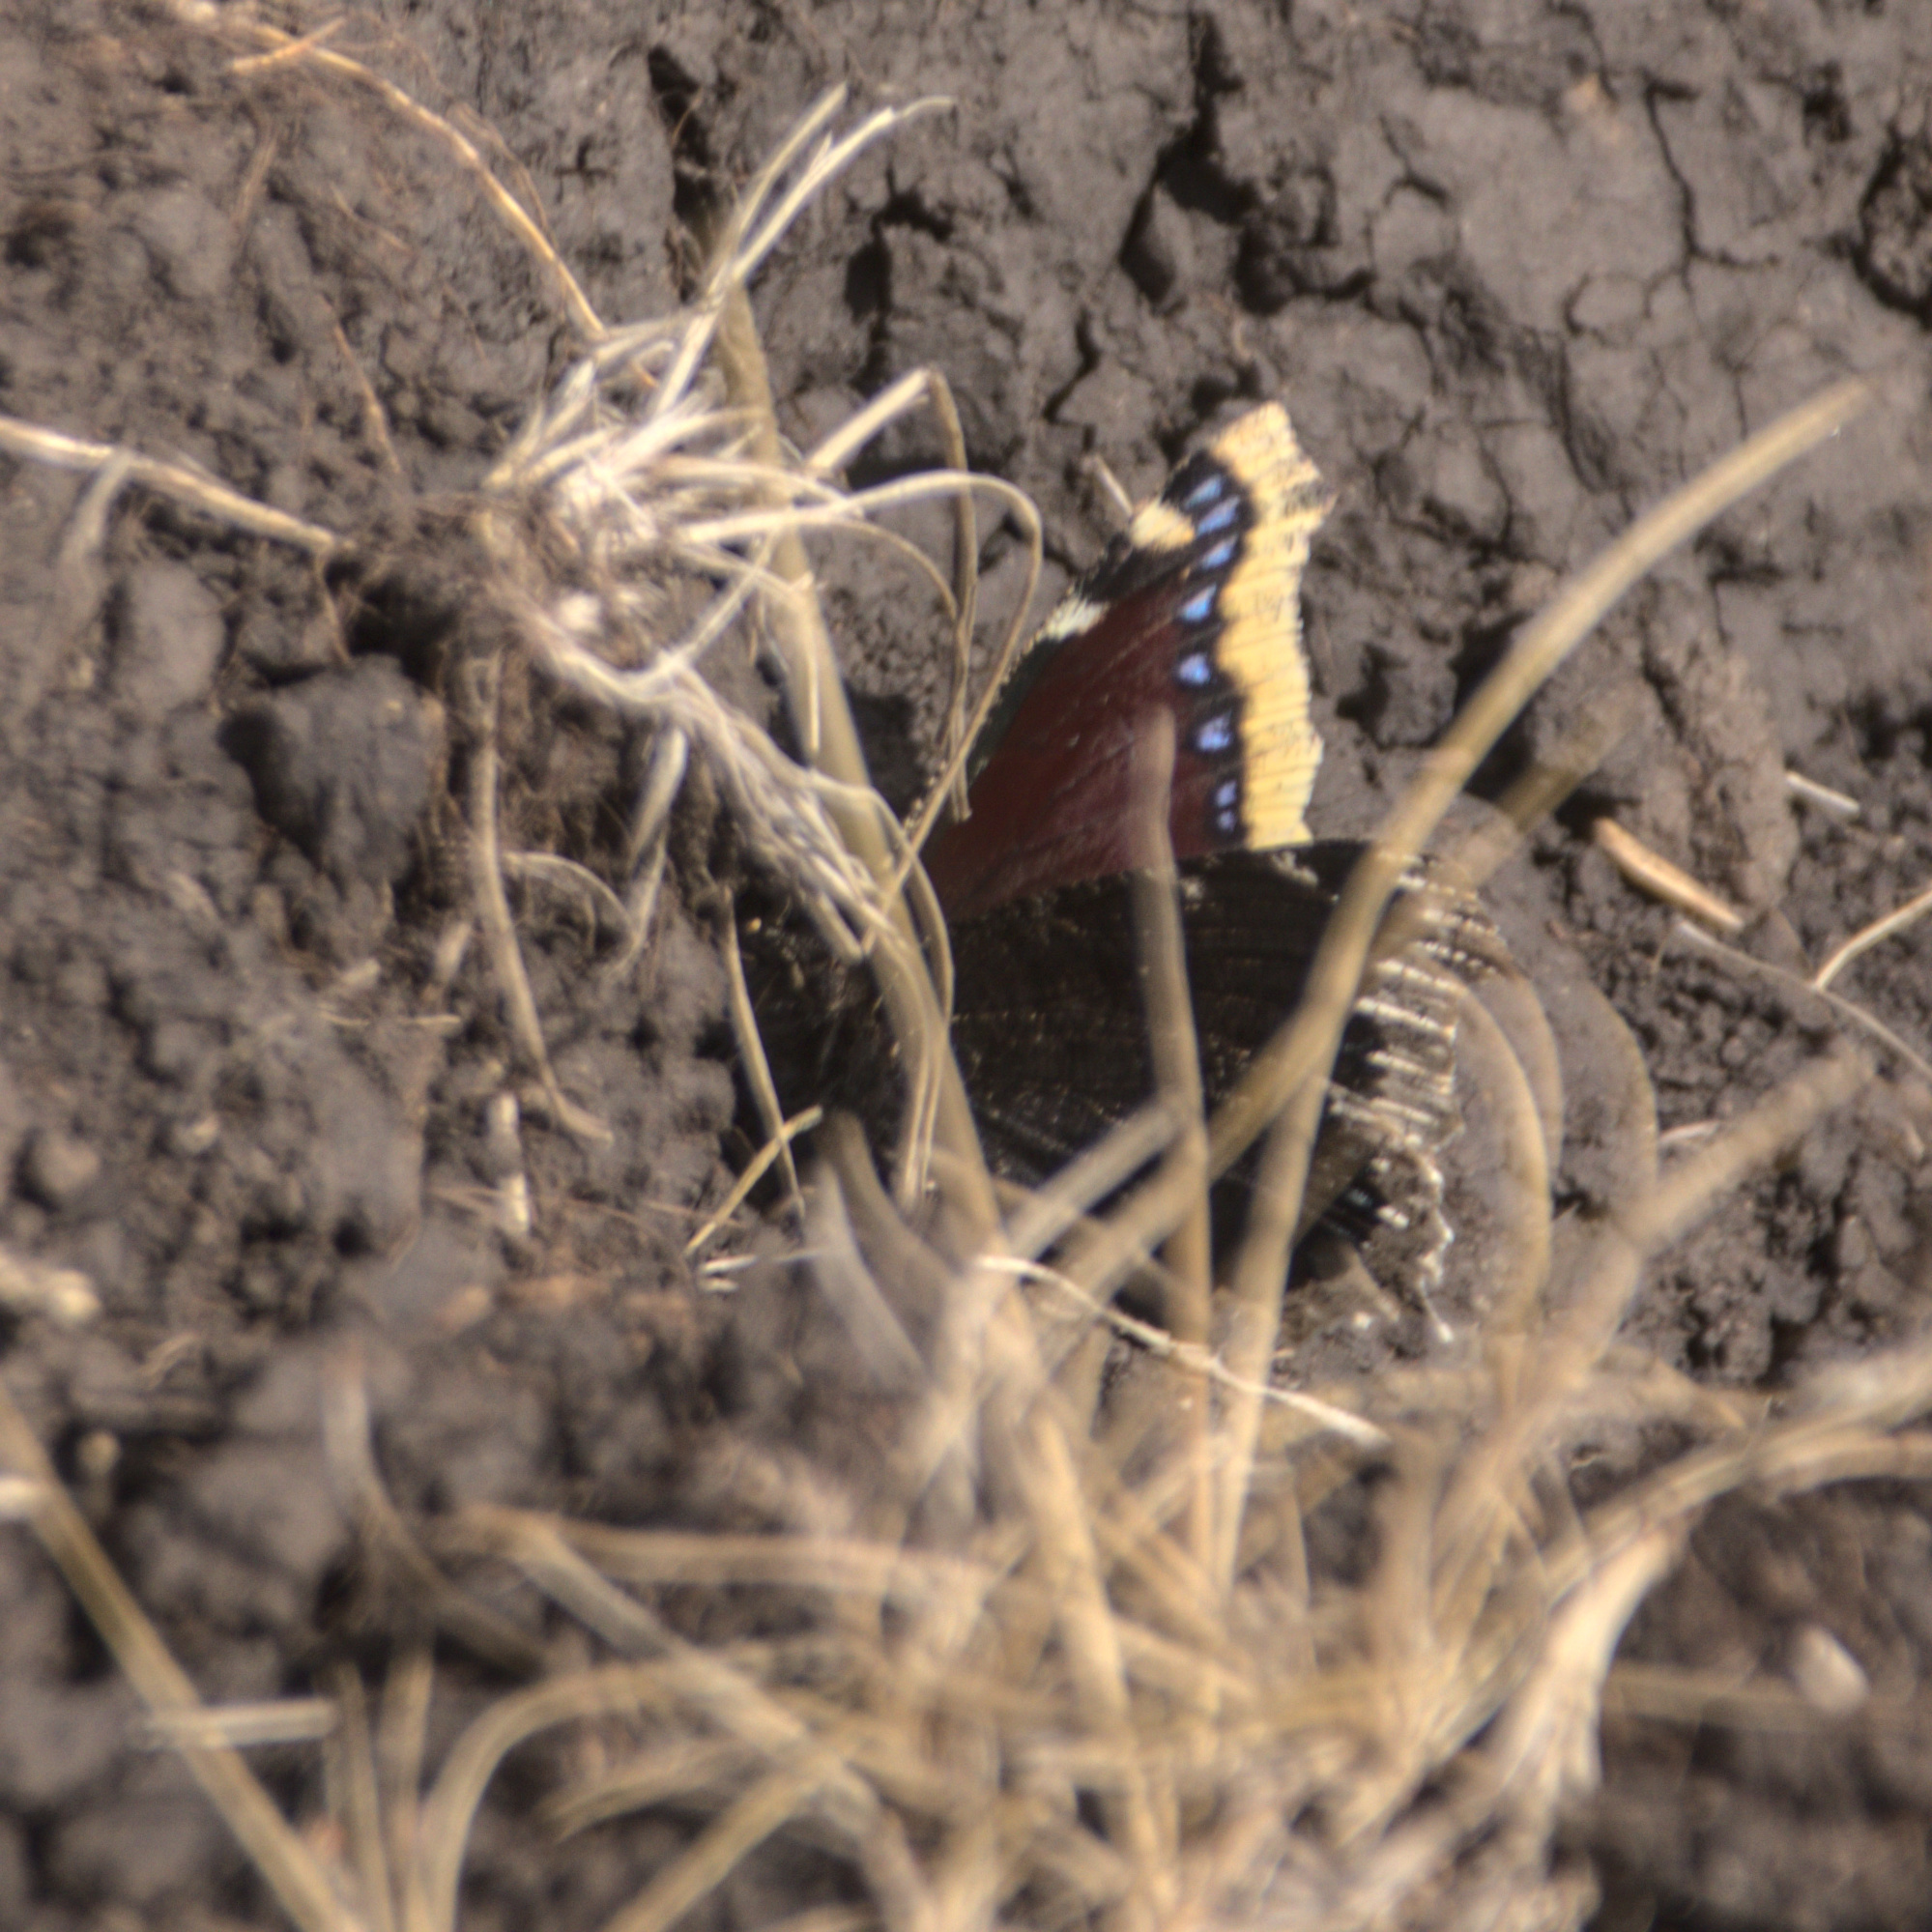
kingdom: Animalia
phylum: Arthropoda
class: Insecta
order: Lepidoptera
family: Nymphalidae
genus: Nymphalis
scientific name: Nymphalis antiopa
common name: Camberwell beauty
